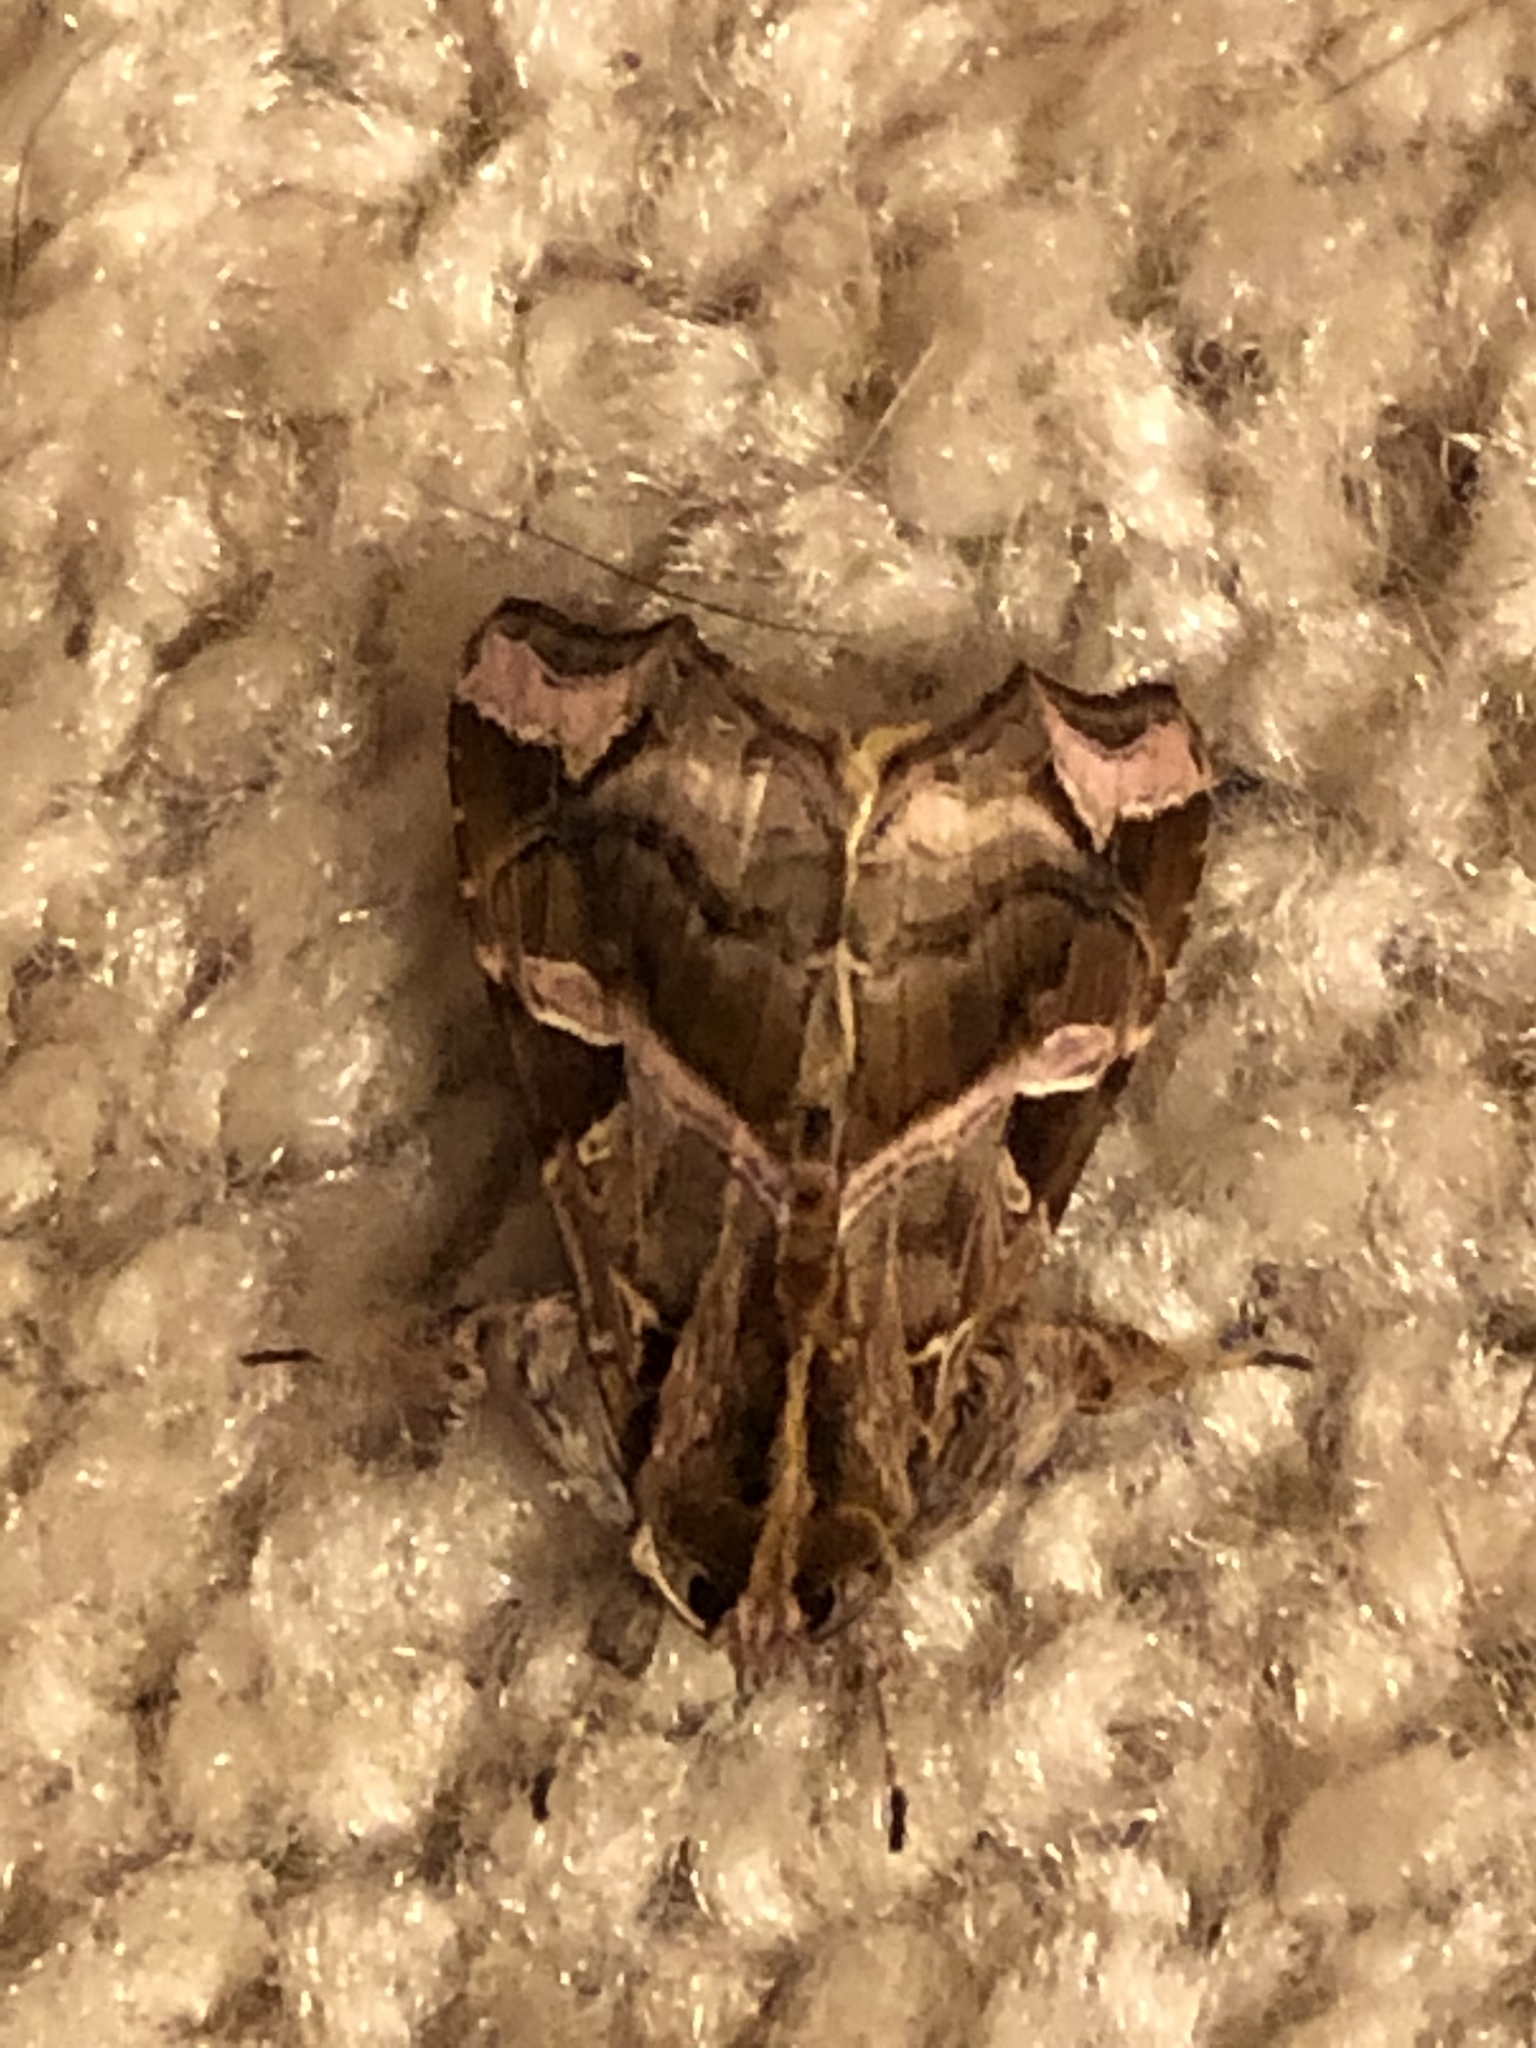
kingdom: Animalia
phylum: Arthropoda
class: Insecta
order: Lepidoptera
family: Noctuidae
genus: Callopistria
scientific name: Callopistria floridensis
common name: Florida fern moth
